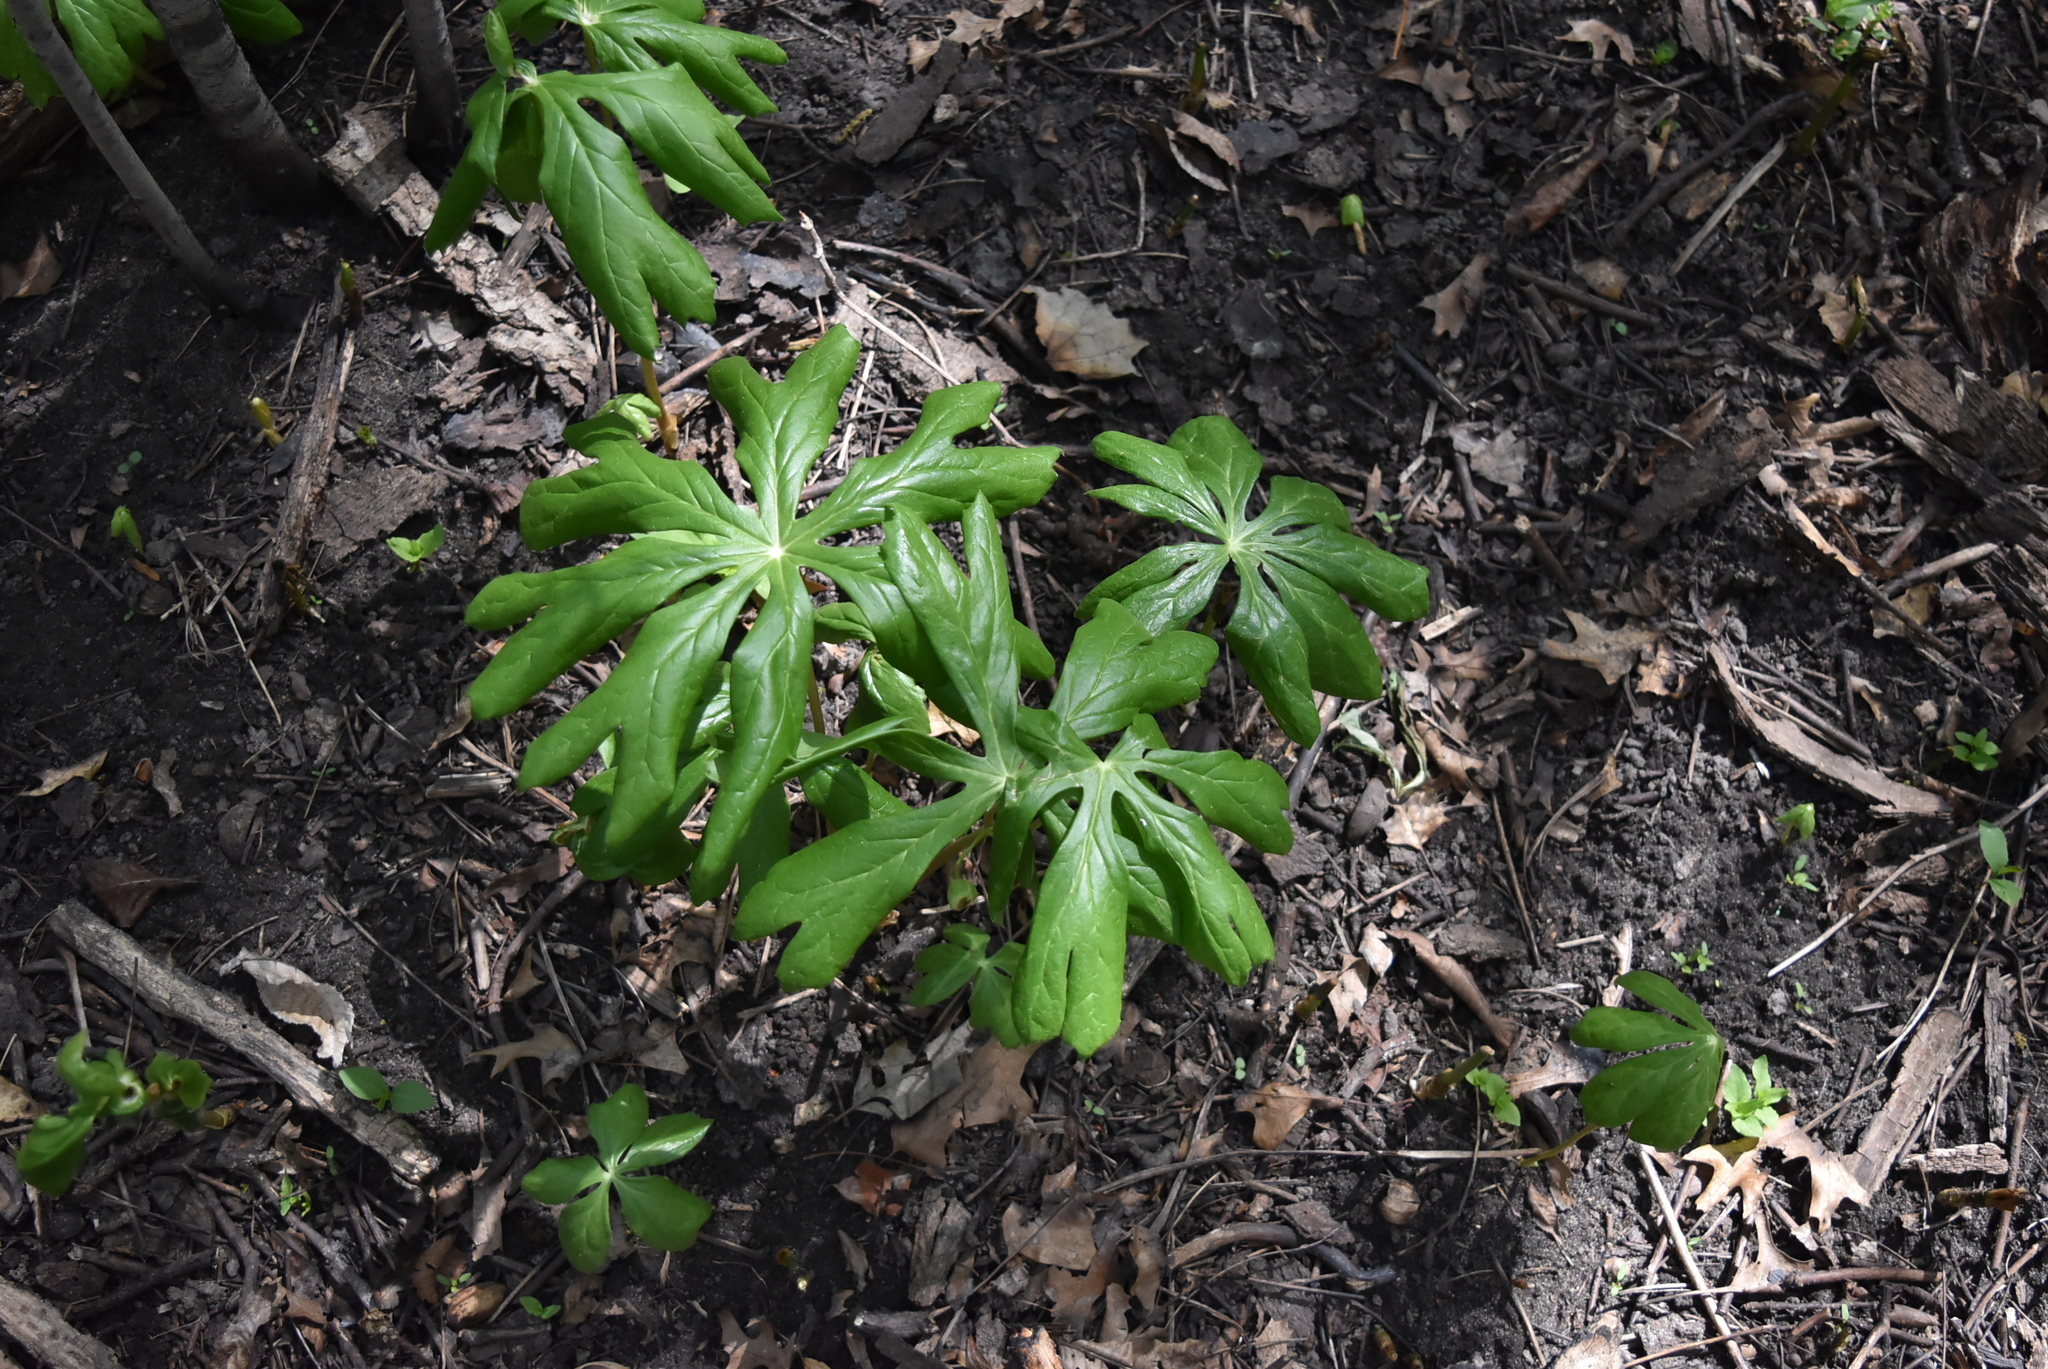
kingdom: Plantae
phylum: Tracheophyta
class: Magnoliopsida
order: Ranunculales
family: Berberidaceae
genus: Podophyllum
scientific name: Podophyllum peltatum
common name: Wild mandrake
